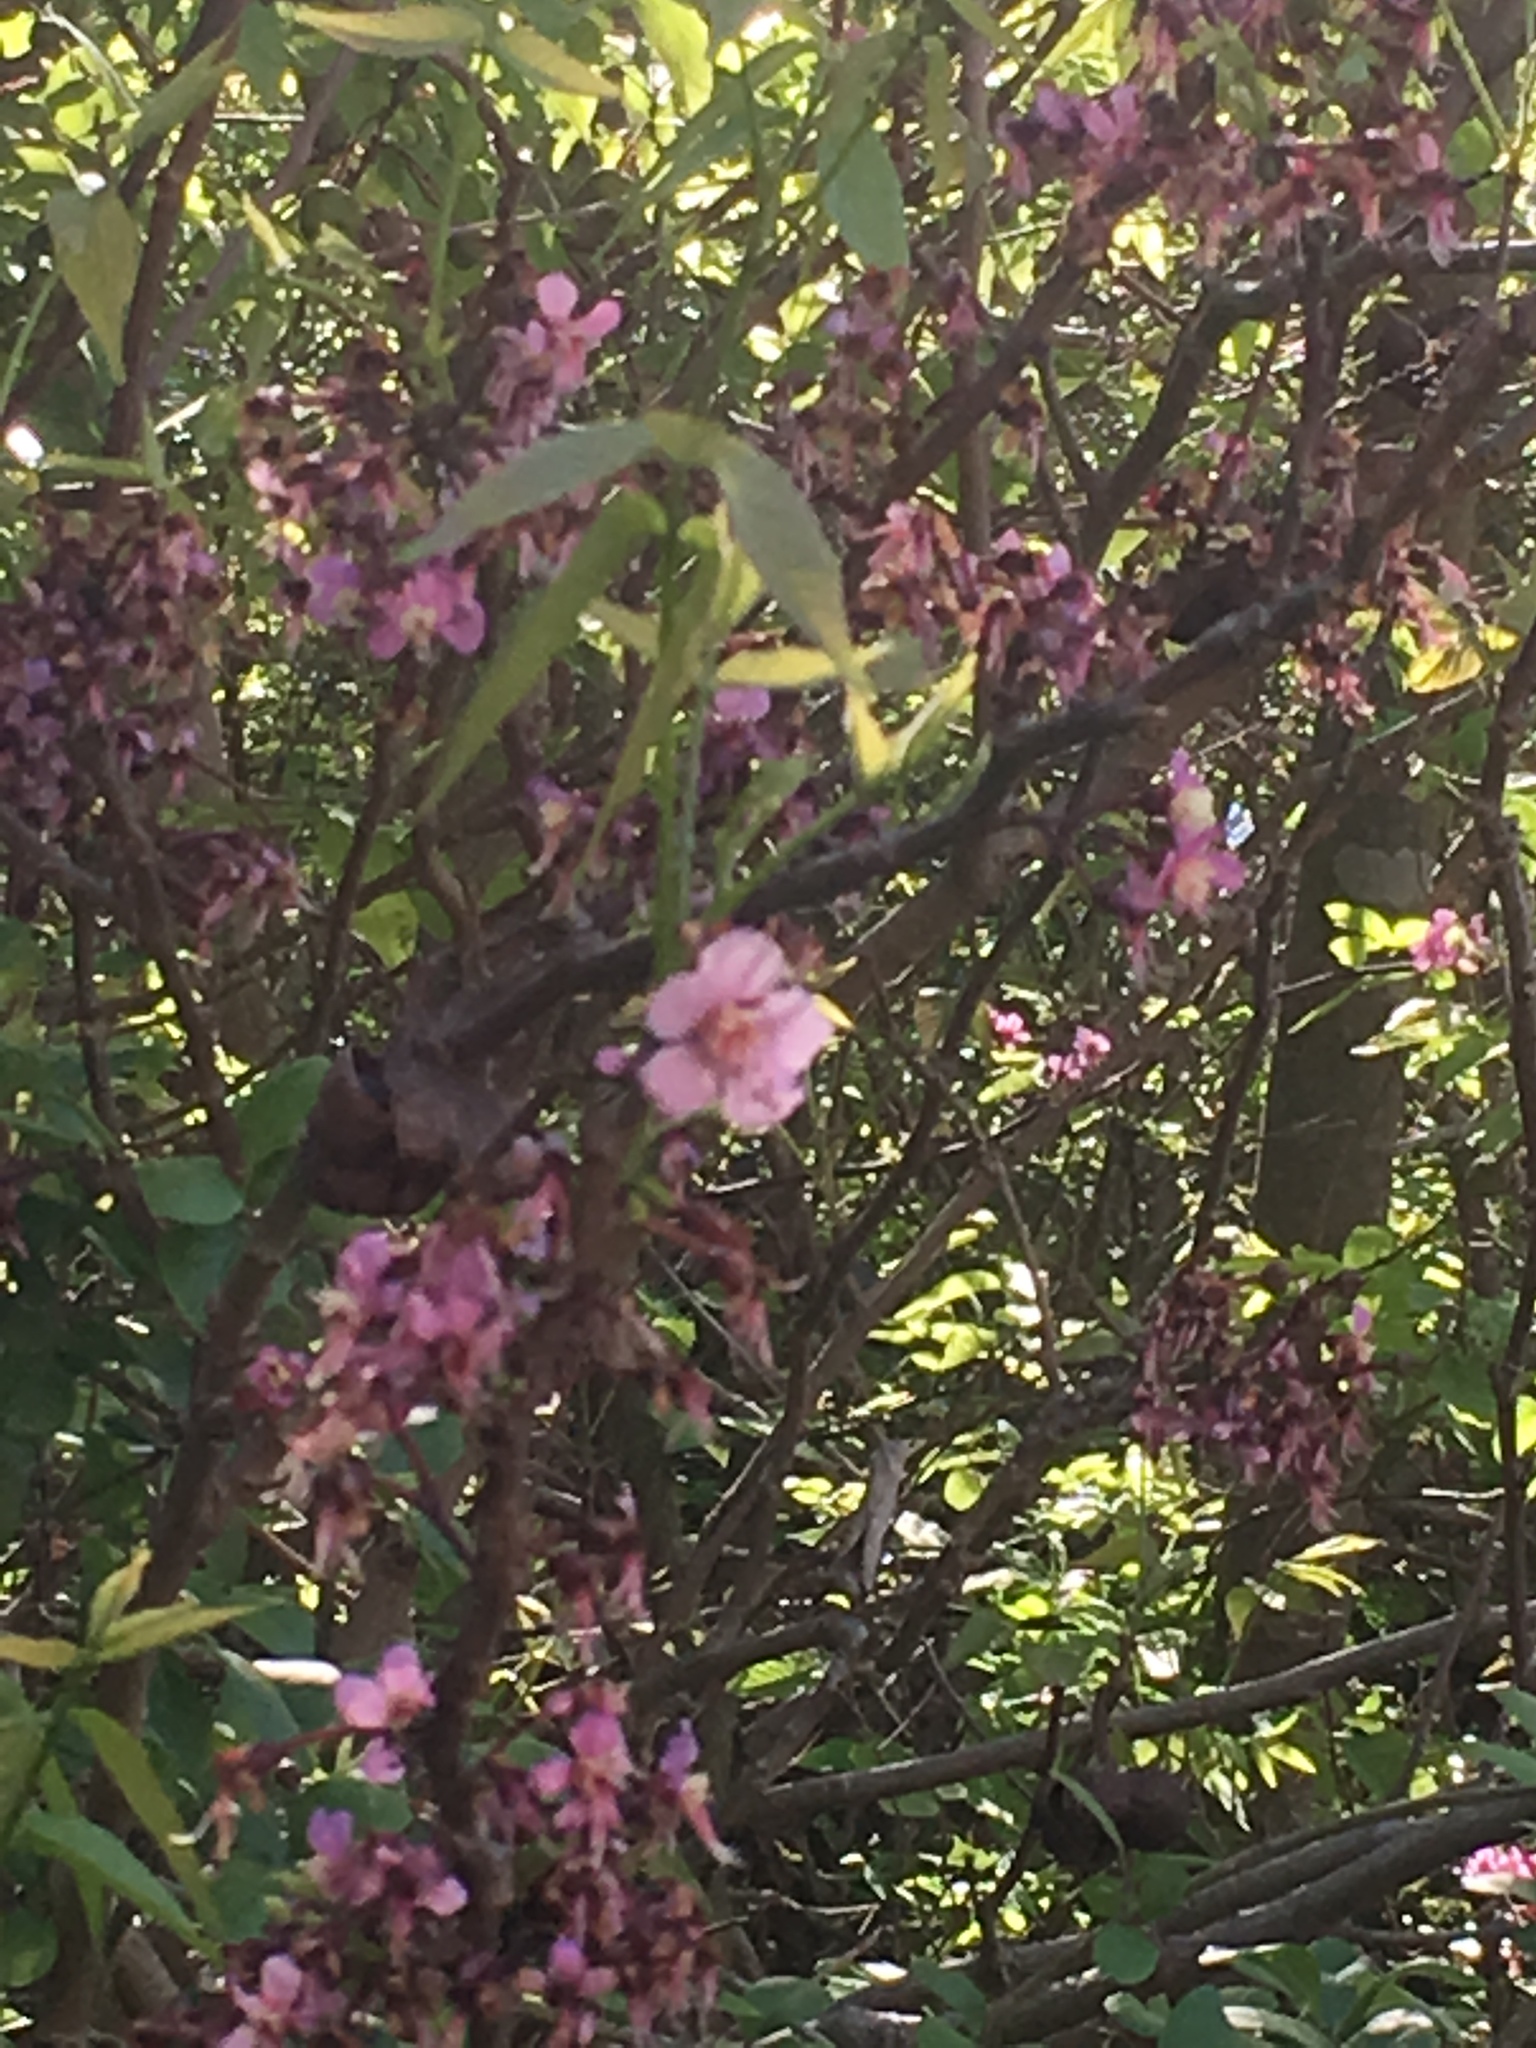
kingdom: Plantae
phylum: Tracheophyta
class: Magnoliopsida
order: Sapindales
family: Sapindaceae
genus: Ungnadia
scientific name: Ungnadia speciosa
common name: Texas-buckeye
